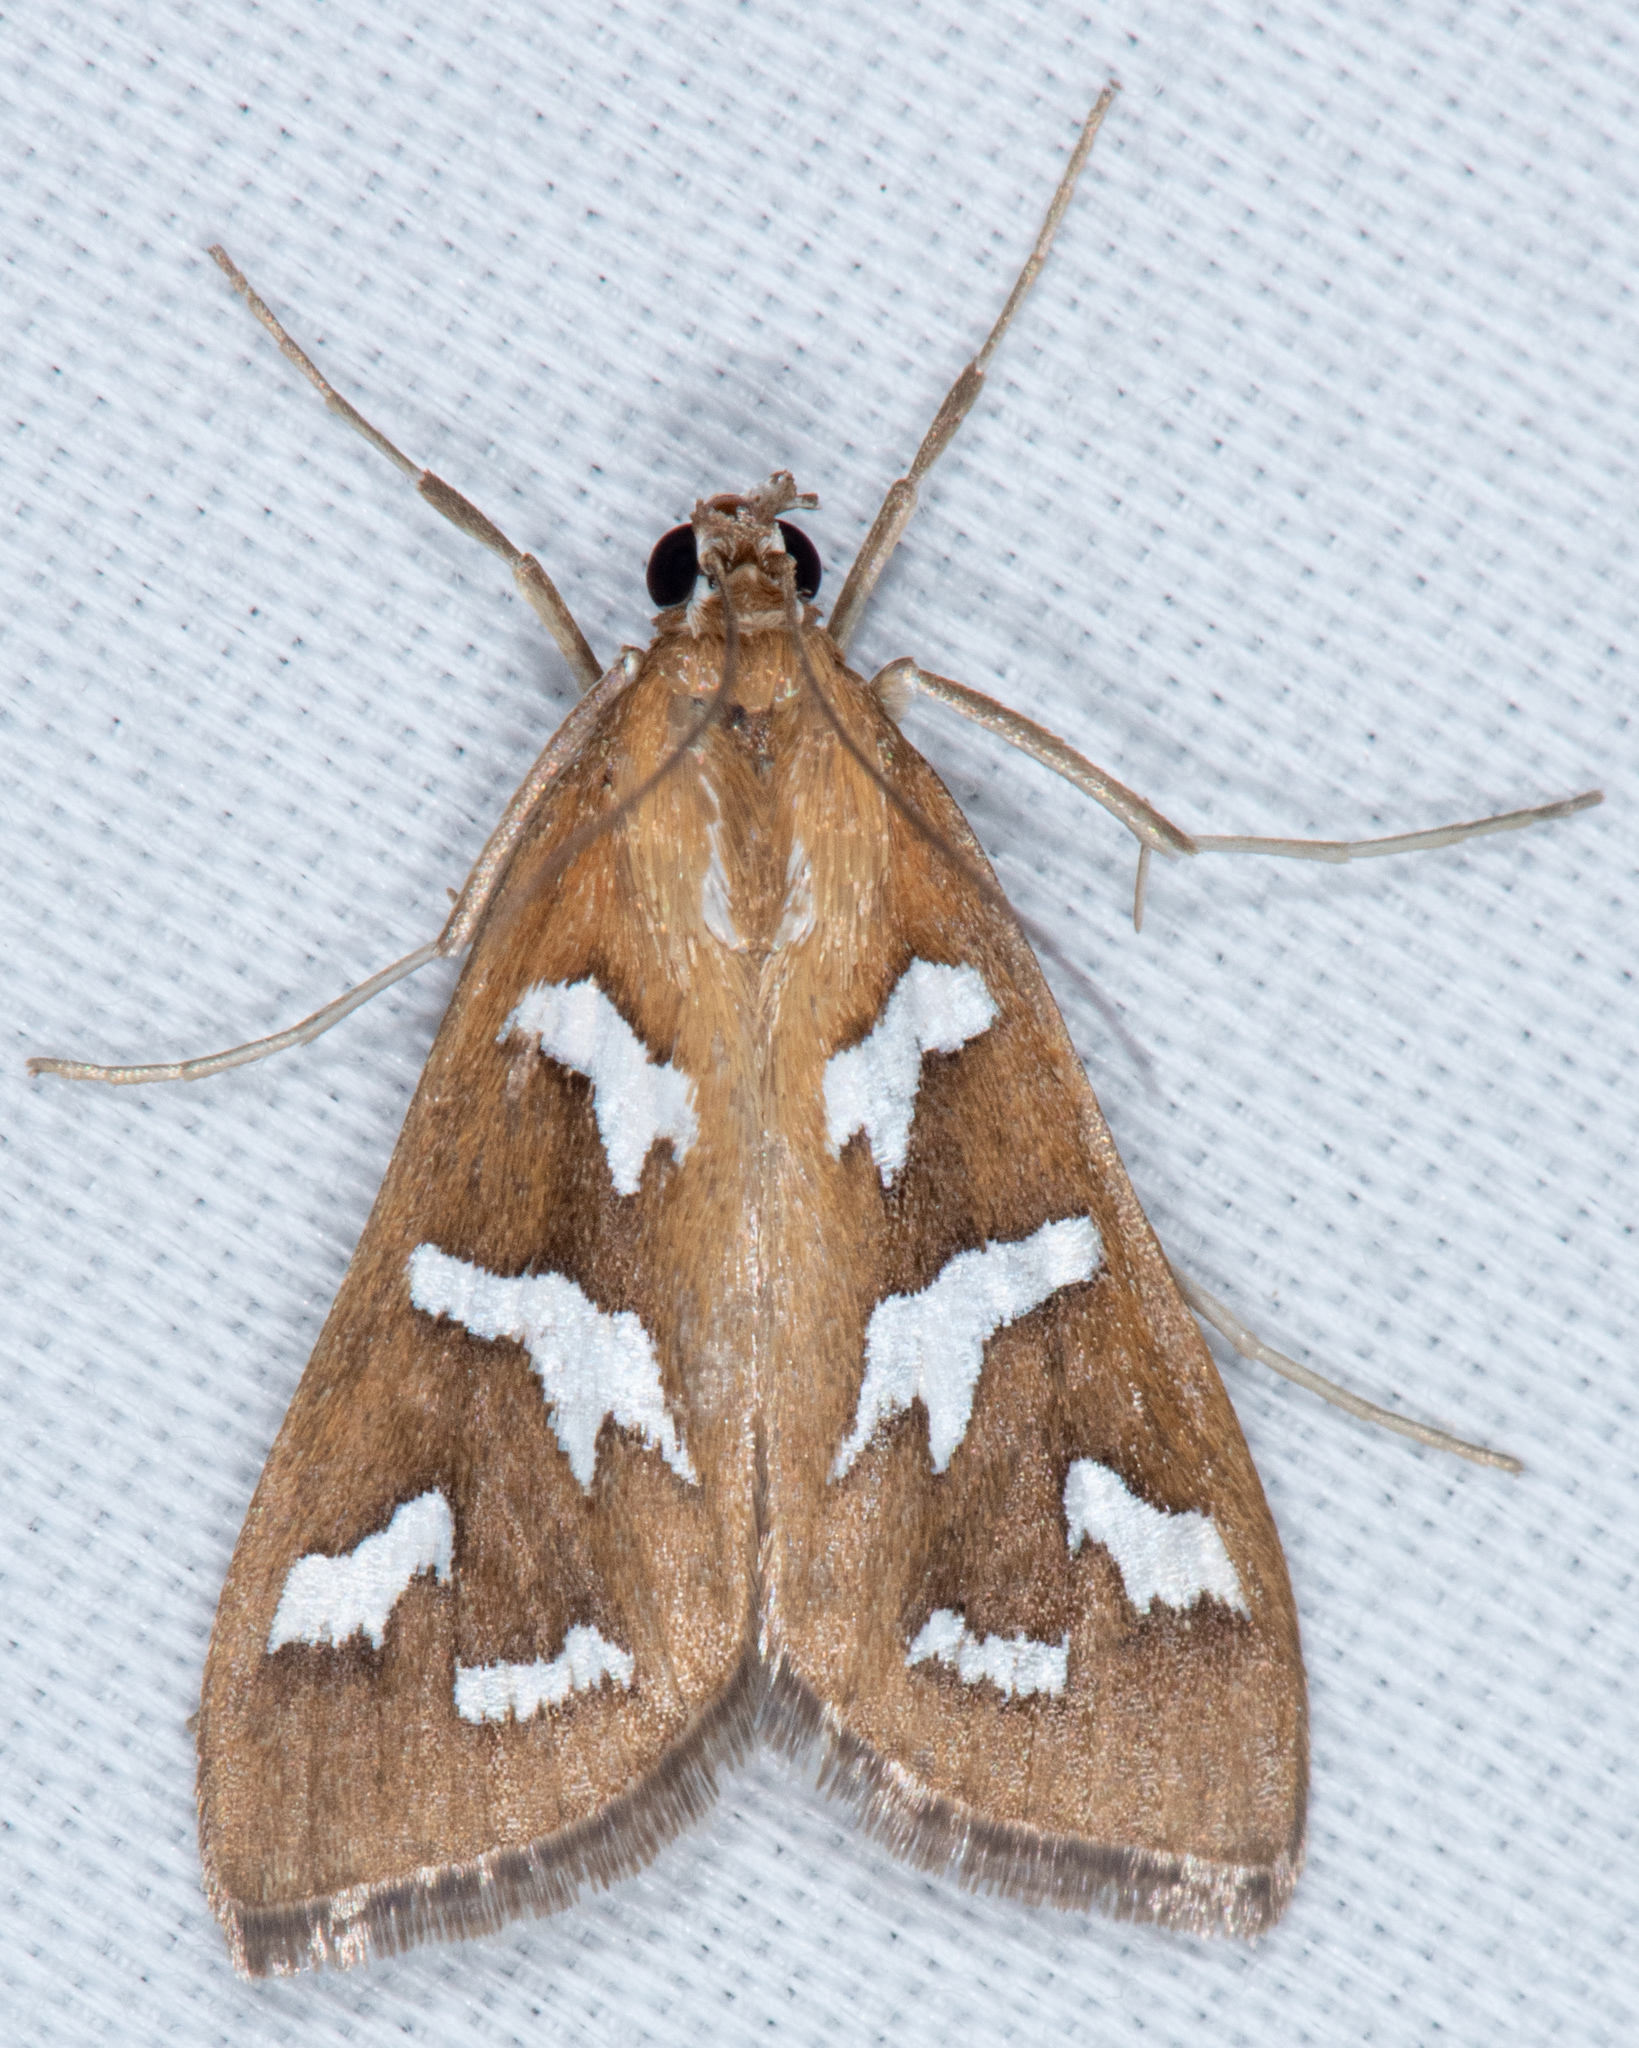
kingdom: Animalia
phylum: Arthropoda
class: Insecta
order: Lepidoptera
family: Crambidae
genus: Diastictis
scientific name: Diastictis fracturalis
